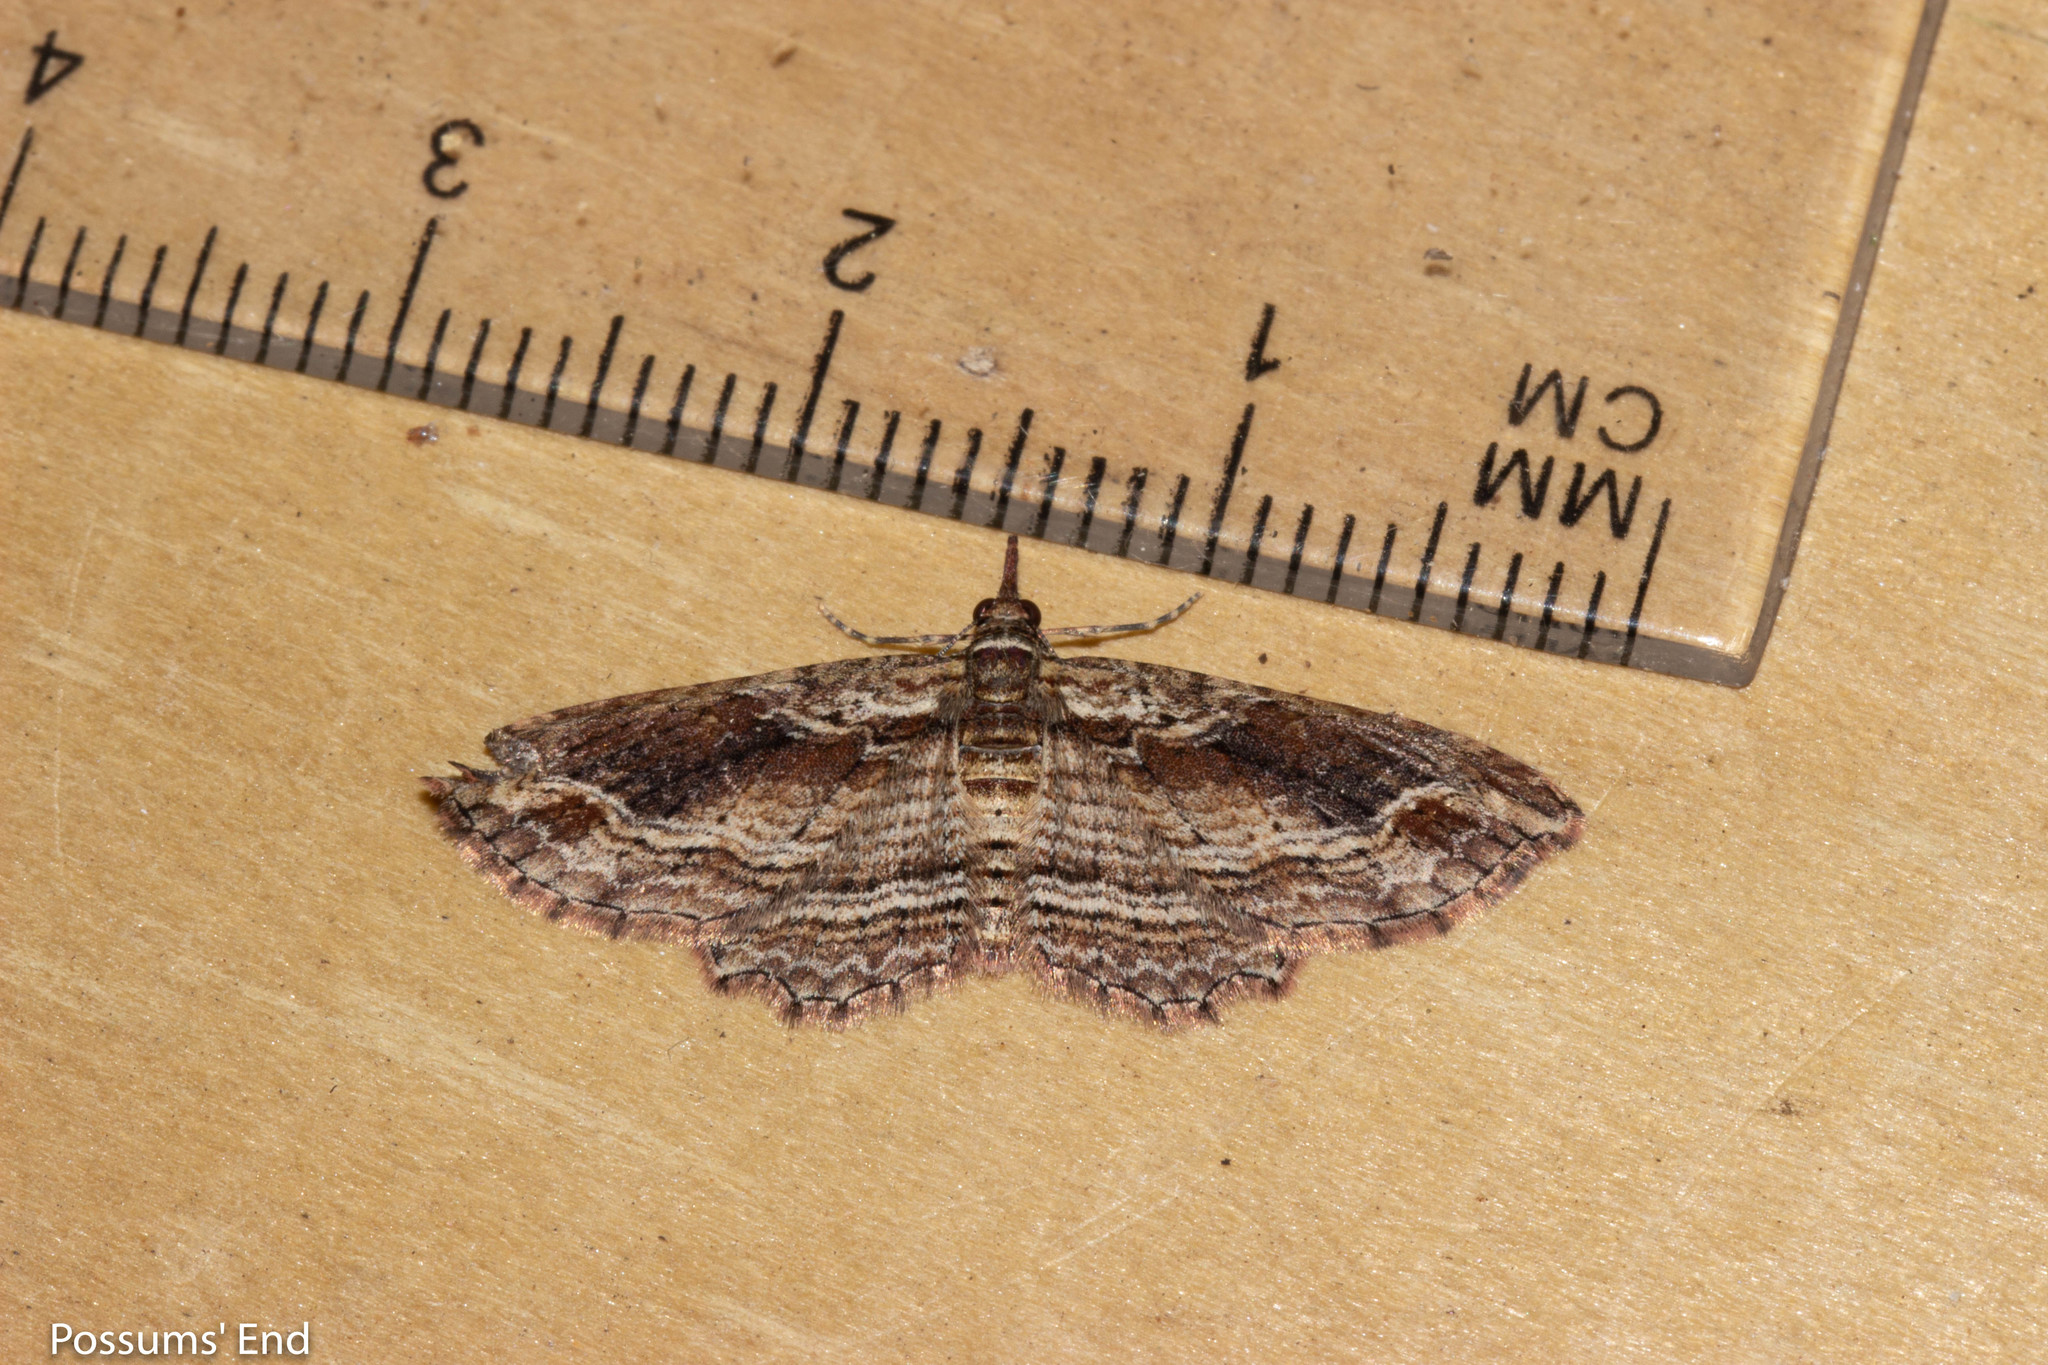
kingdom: Animalia
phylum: Arthropoda
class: Insecta
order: Lepidoptera
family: Geometridae
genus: Chloroclystis
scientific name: Chloroclystis filata
